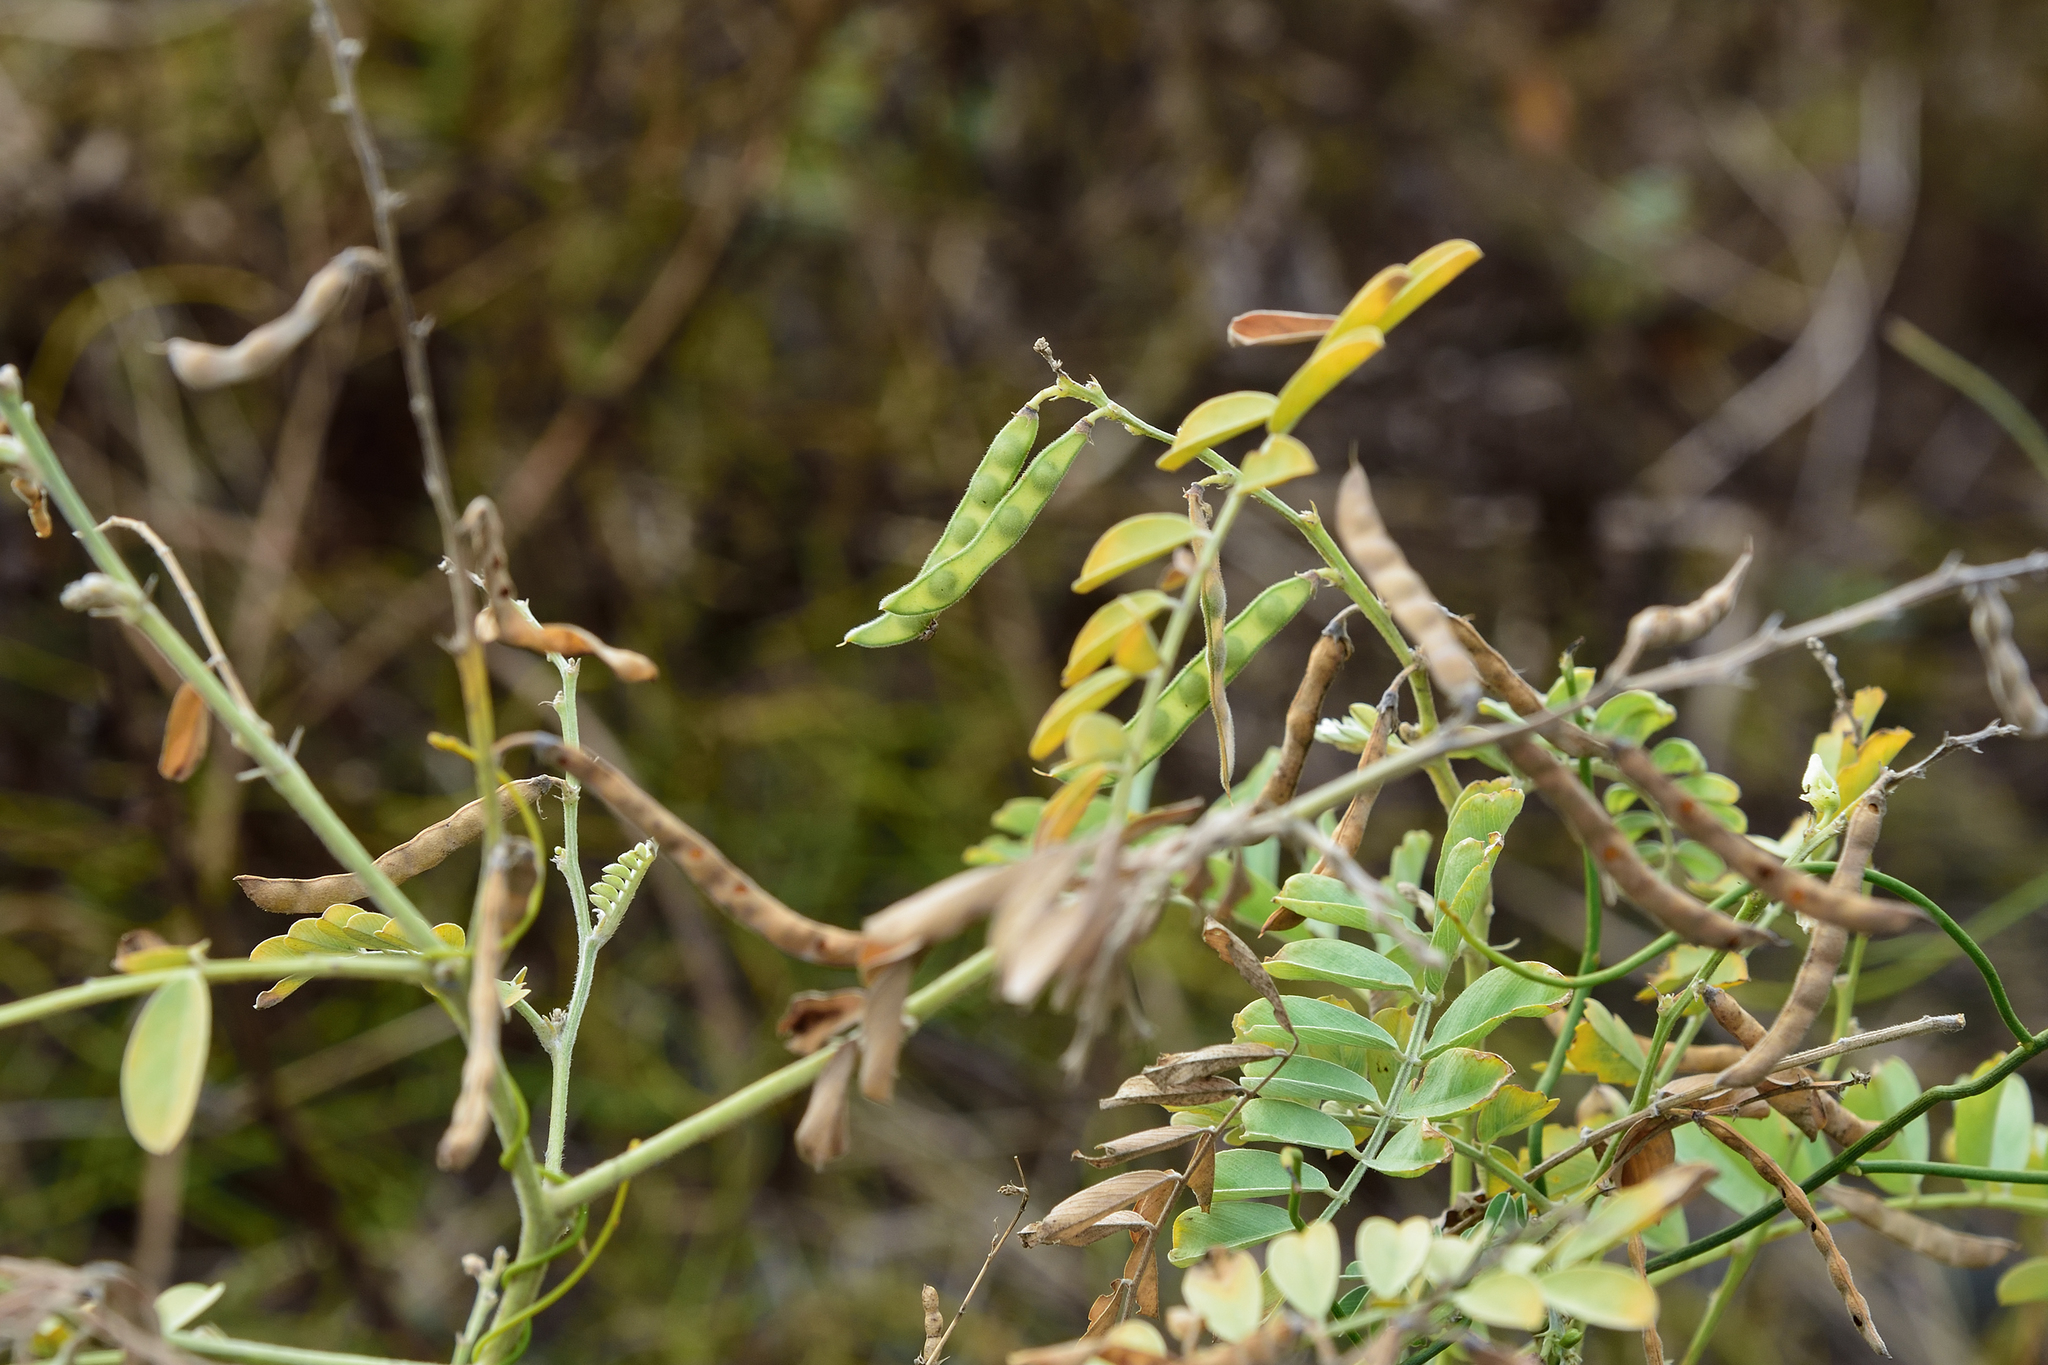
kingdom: Plantae
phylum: Tracheophyta
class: Magnoliopsida
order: Fabales
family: Fabaceae
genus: Tephrosia
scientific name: Tephrosia purpurea
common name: Fishpoison
